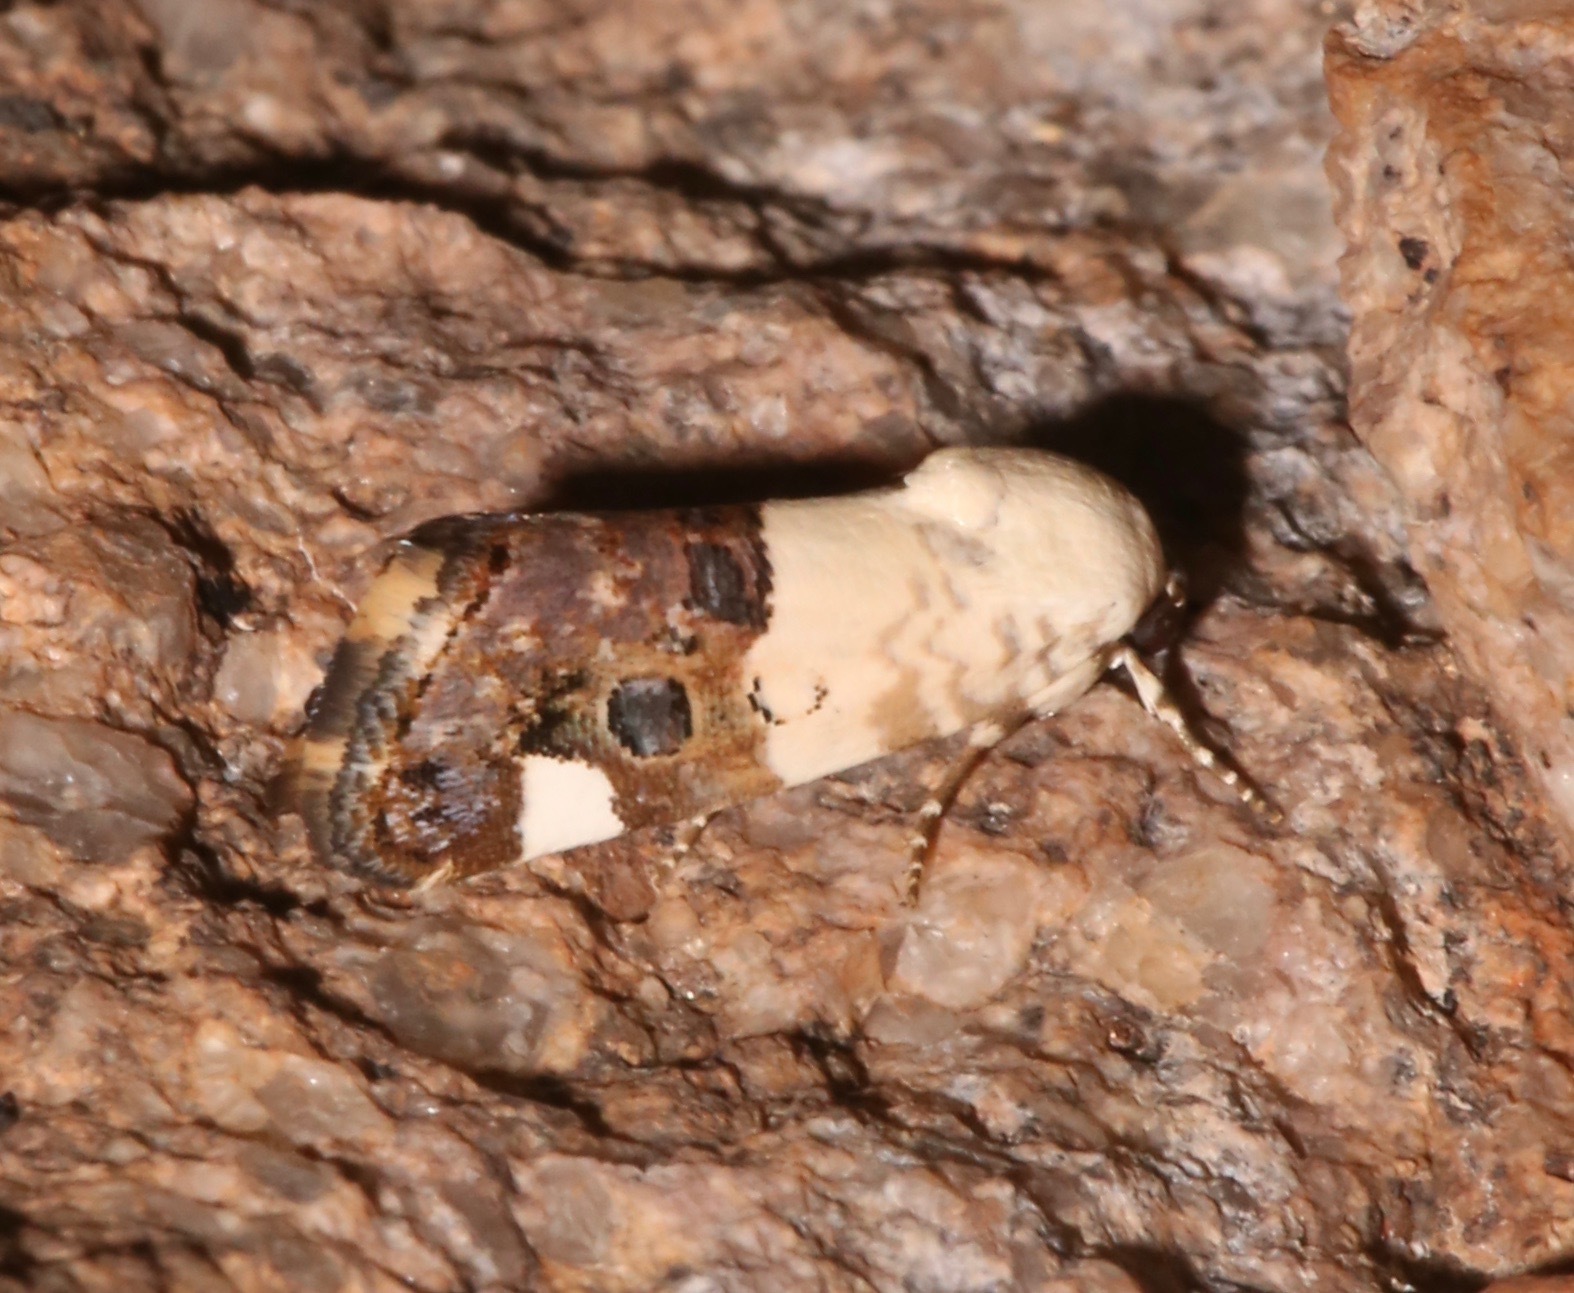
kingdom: Animalia
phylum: Arthropoda
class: Insecta
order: Lepidoptera
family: Noctuidae
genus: Acontia
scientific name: Acontia geminocula
